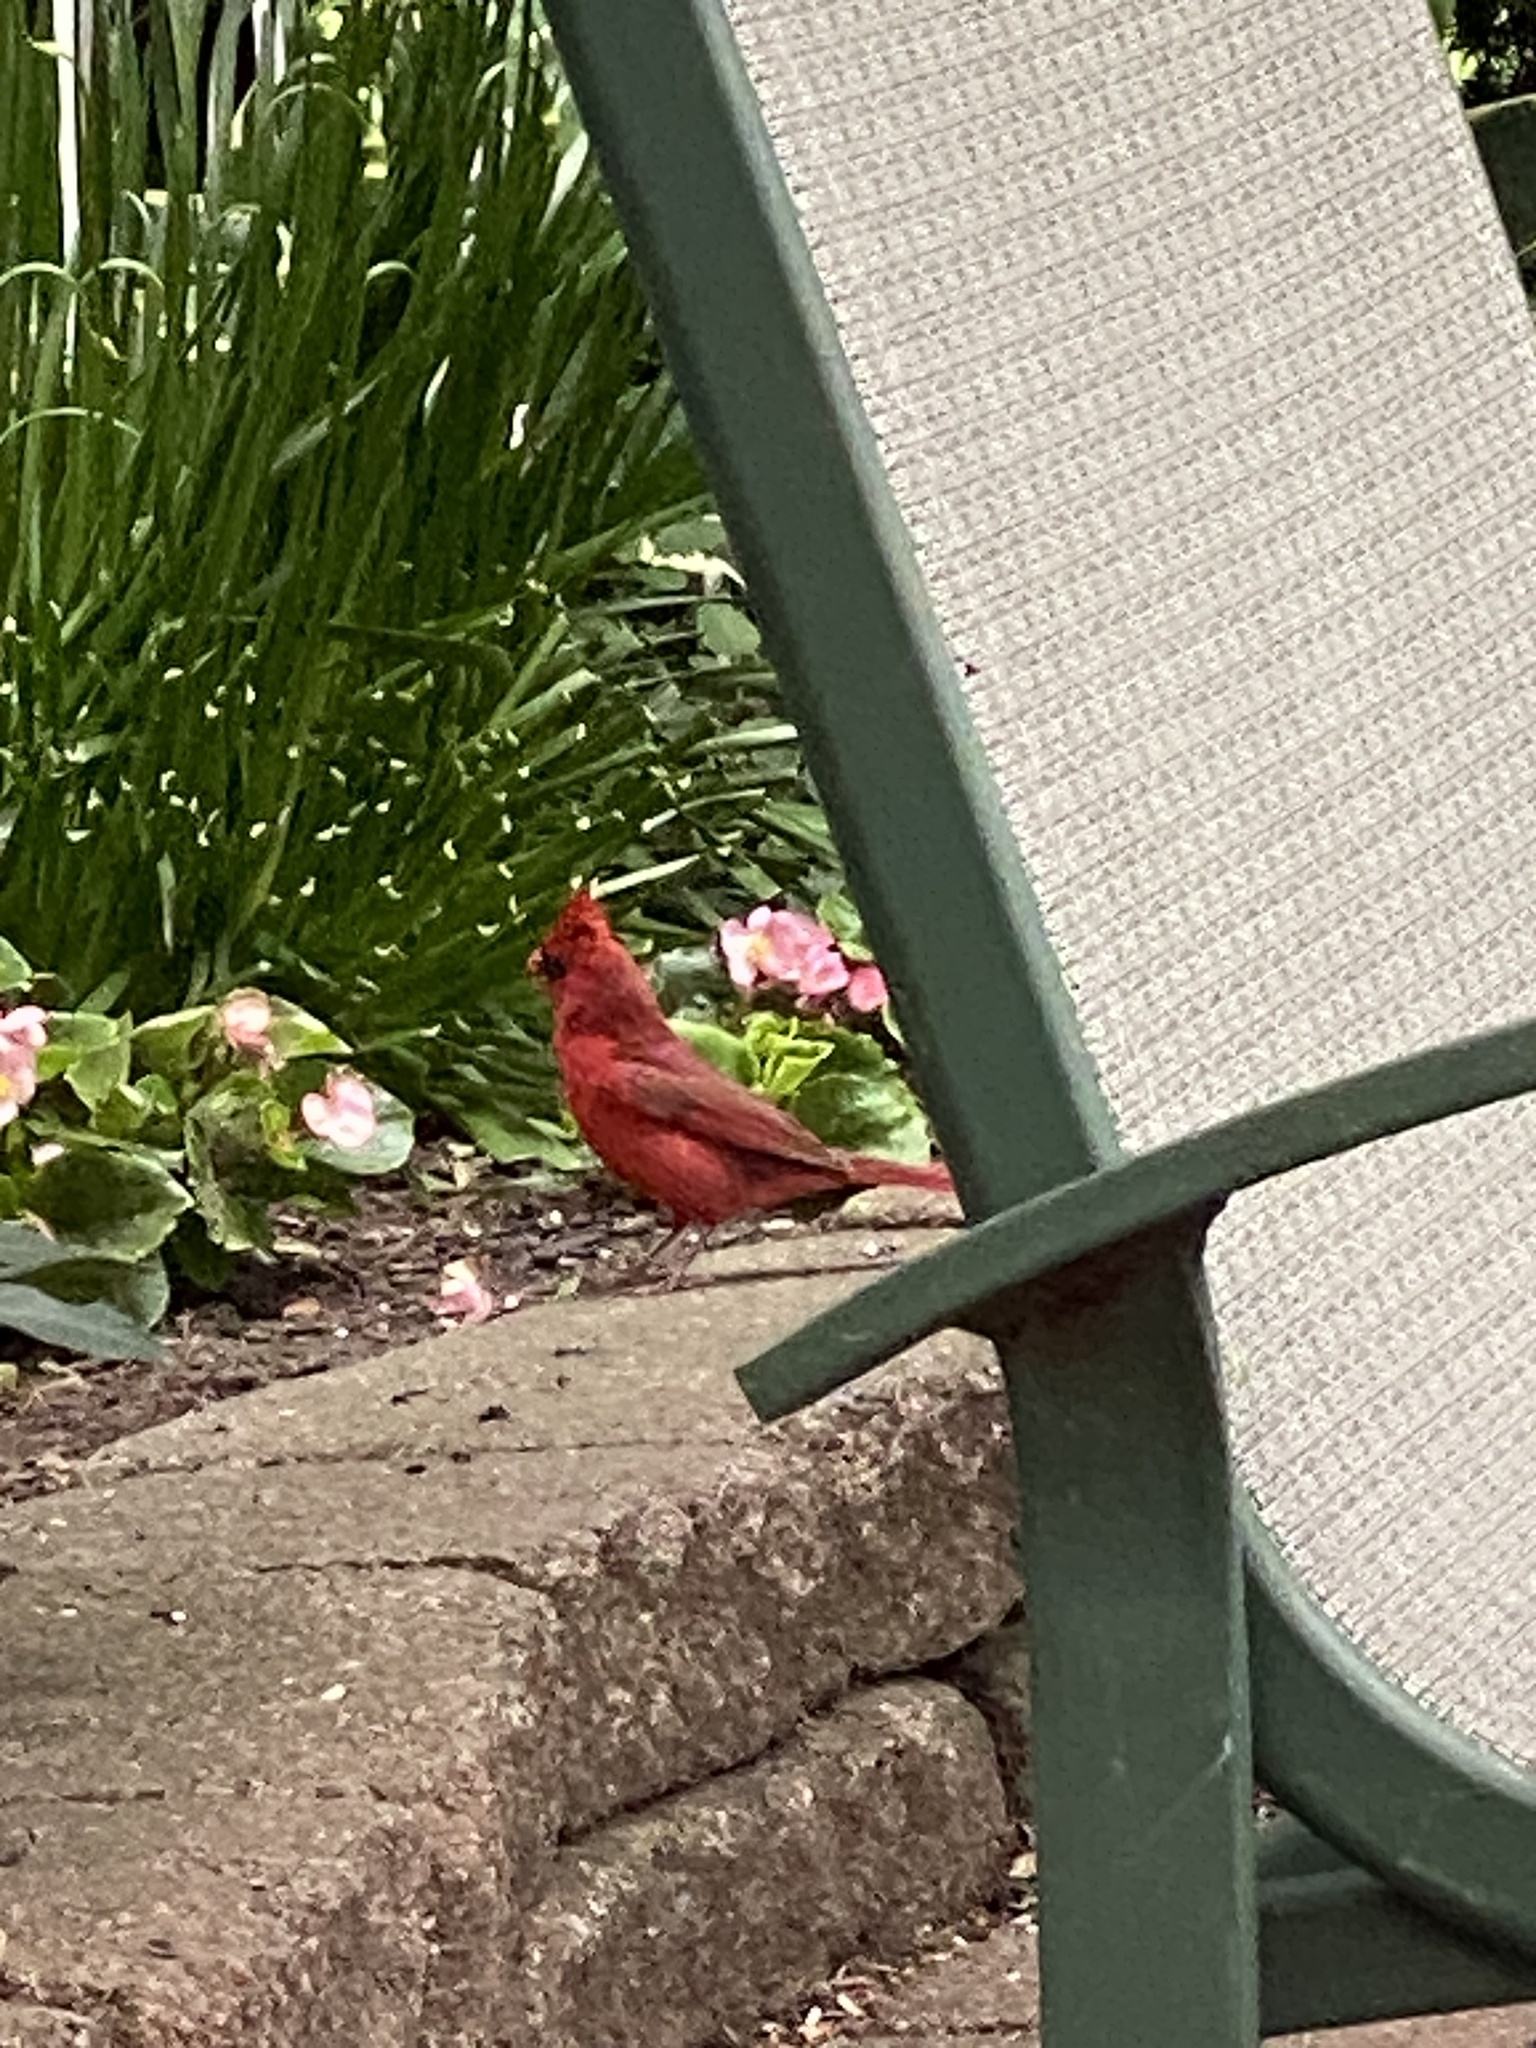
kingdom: Animalia
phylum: Chordata
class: Aves
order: Passeriformes
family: Cardinalidae
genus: Cardinalis
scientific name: Cardinalis cardinalis
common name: Northern cardinal
